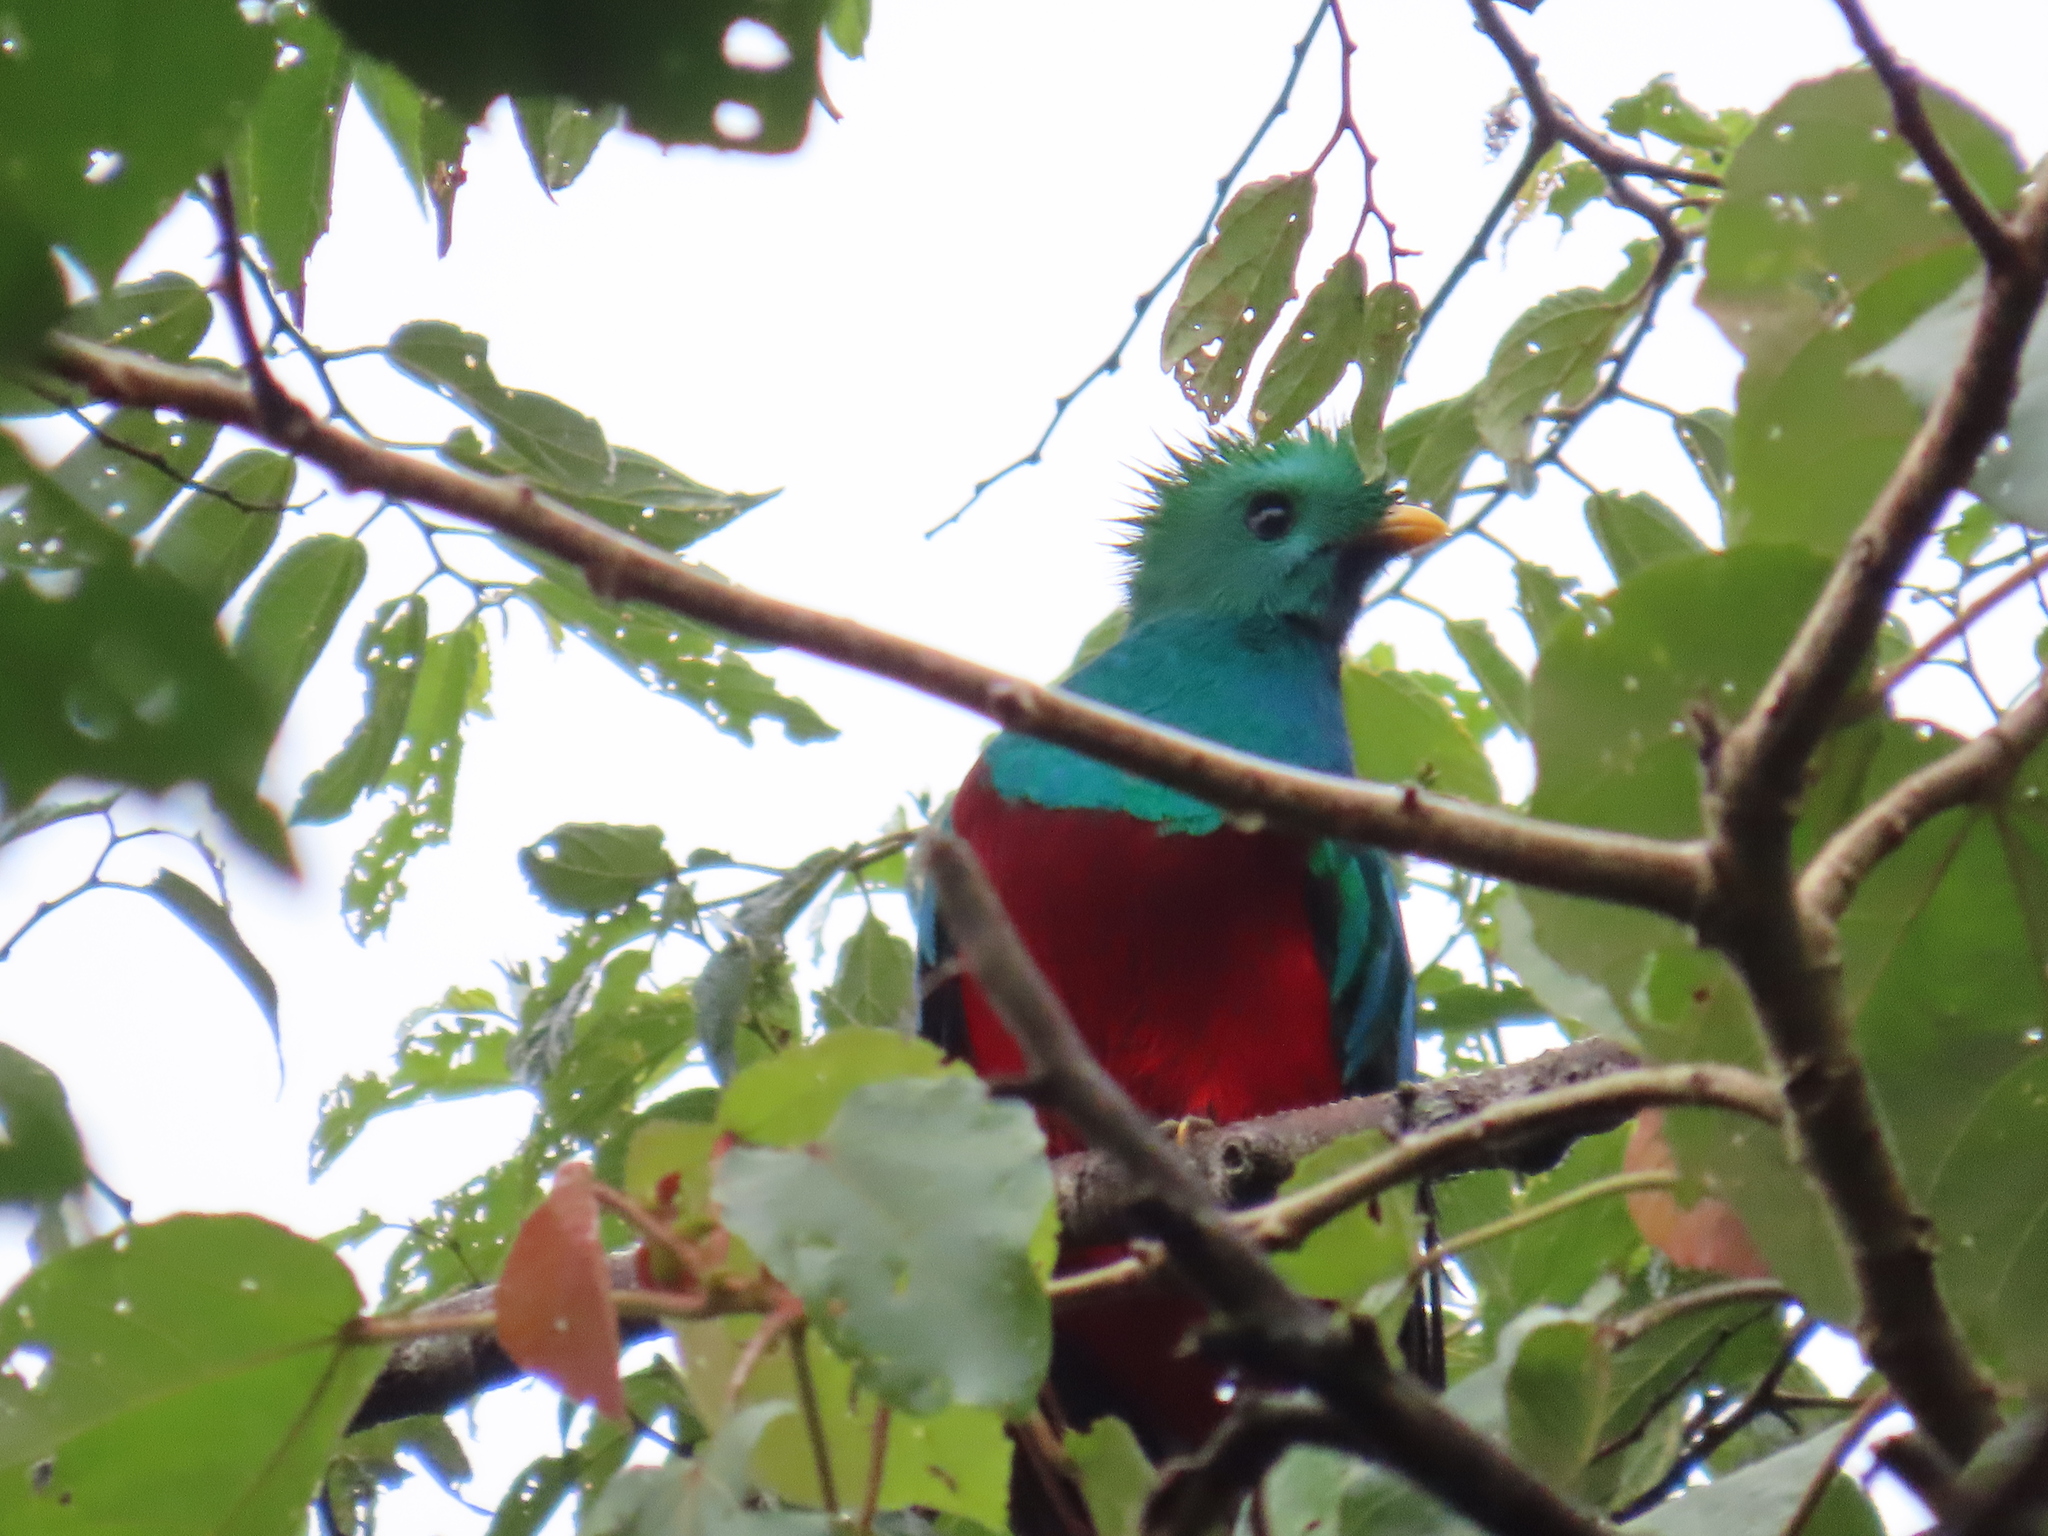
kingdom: Animalia
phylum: Chordata
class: Aves
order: Trogoniformes
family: Trogonidae
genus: Pharomachrus
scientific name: Pharomachrus mocinno
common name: Resplendent quetzal
